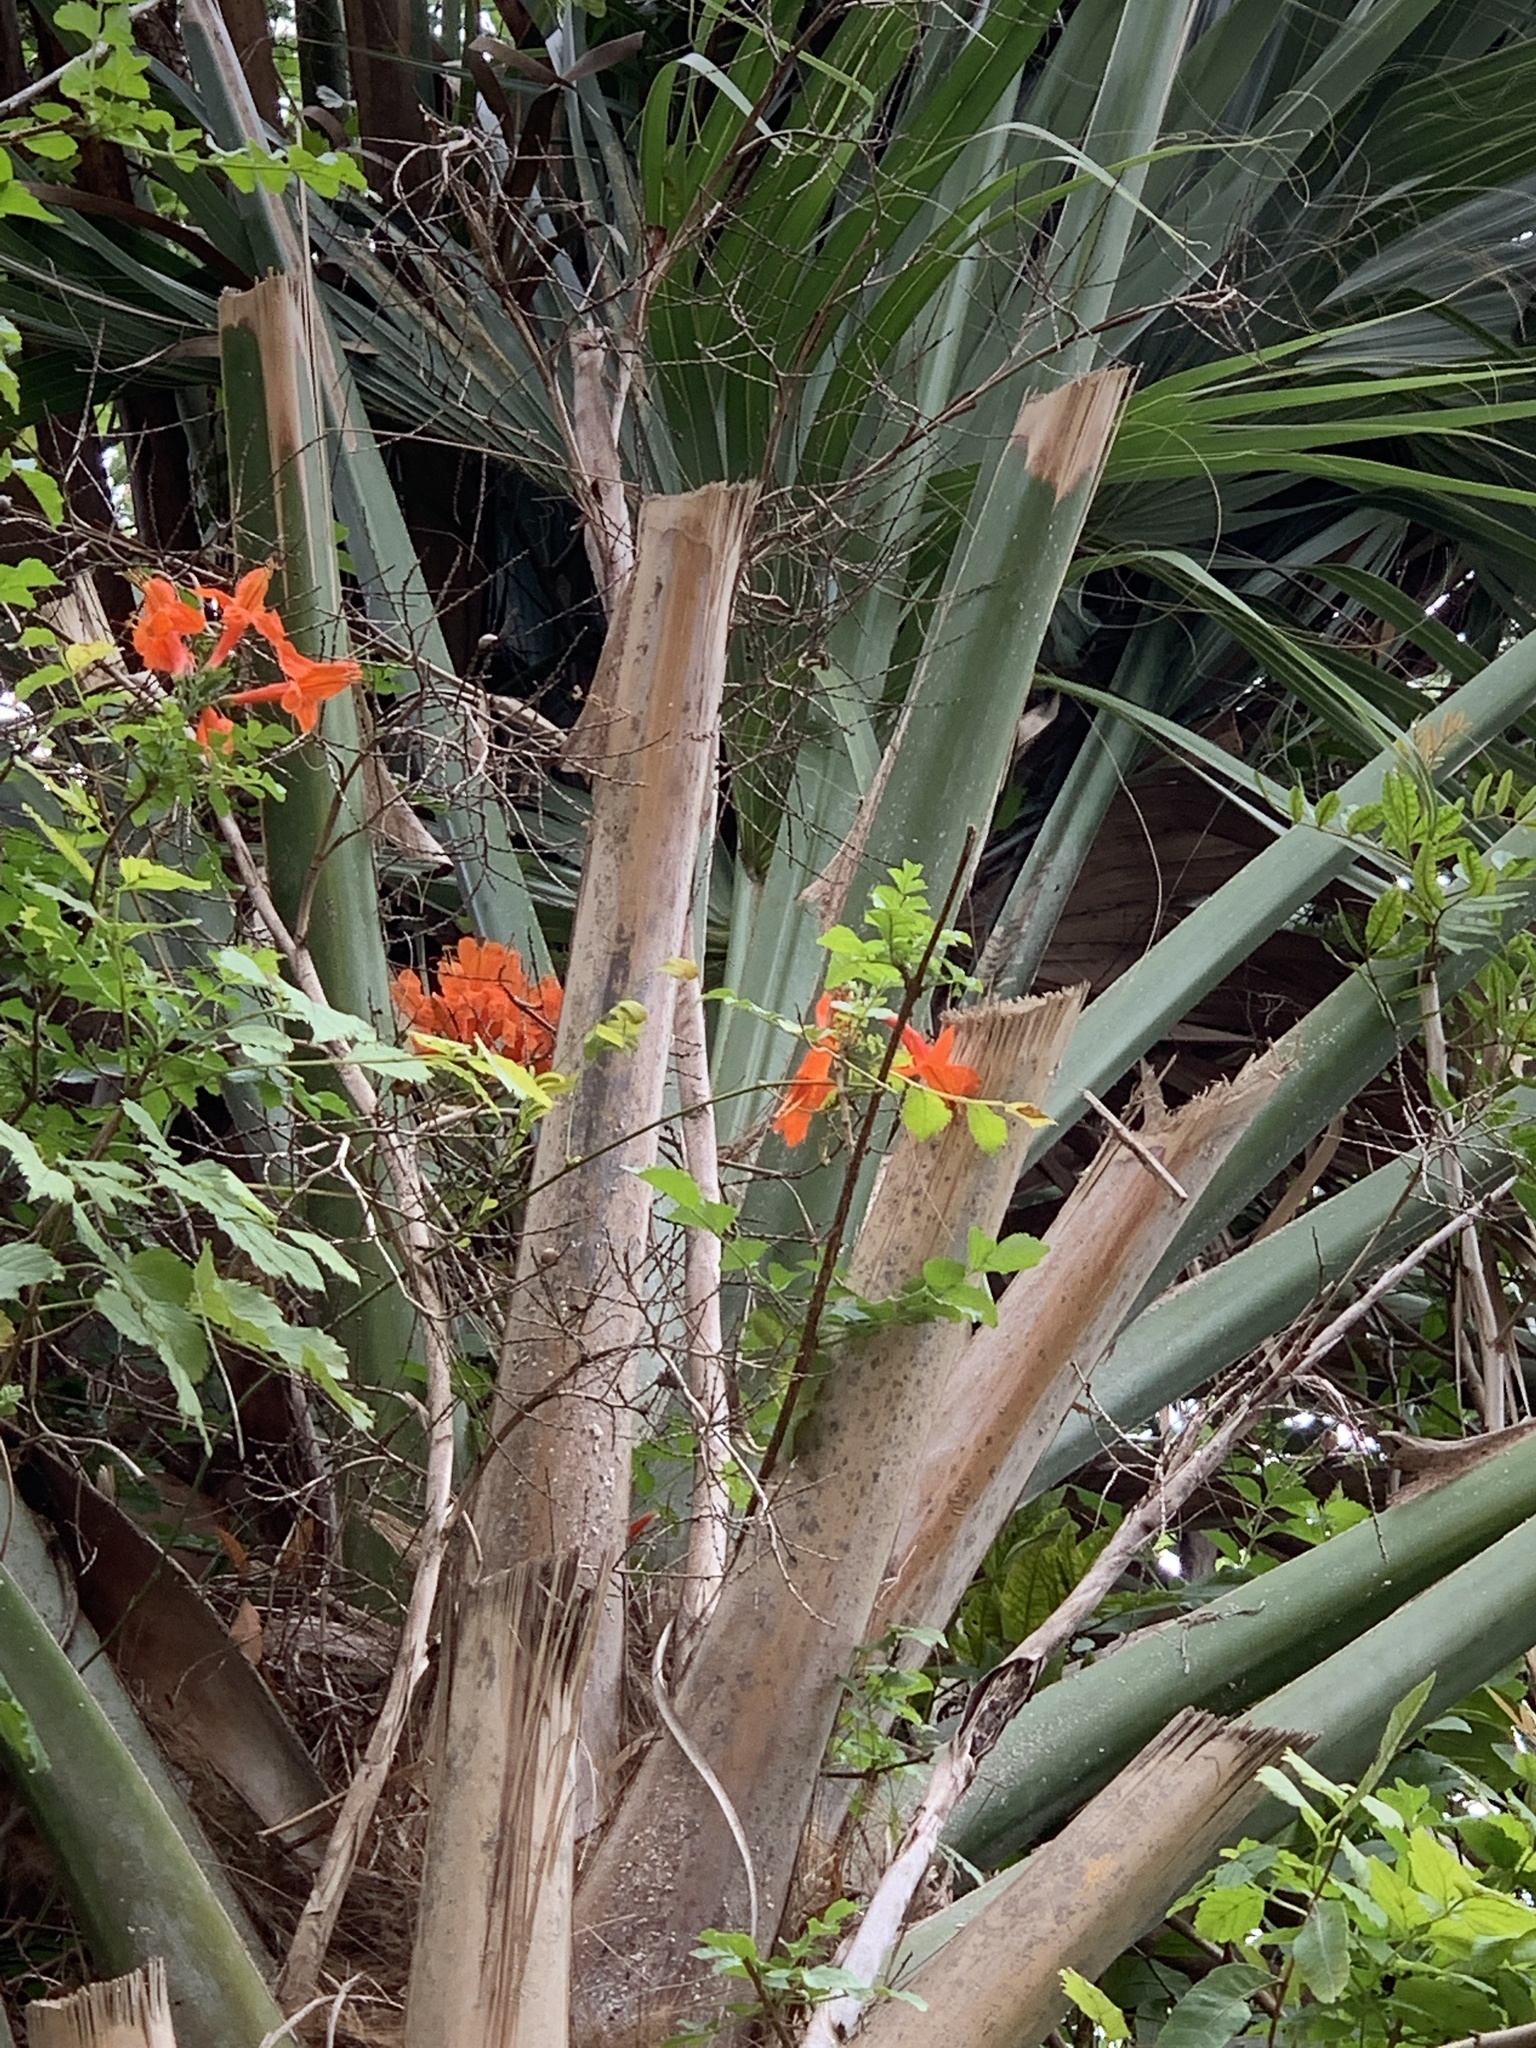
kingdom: Plantae
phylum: Tracheophyta
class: Magnoliopsida
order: Lamiales
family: Bignoniaceae
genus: Tecomaria
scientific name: Tecomaria capensis
